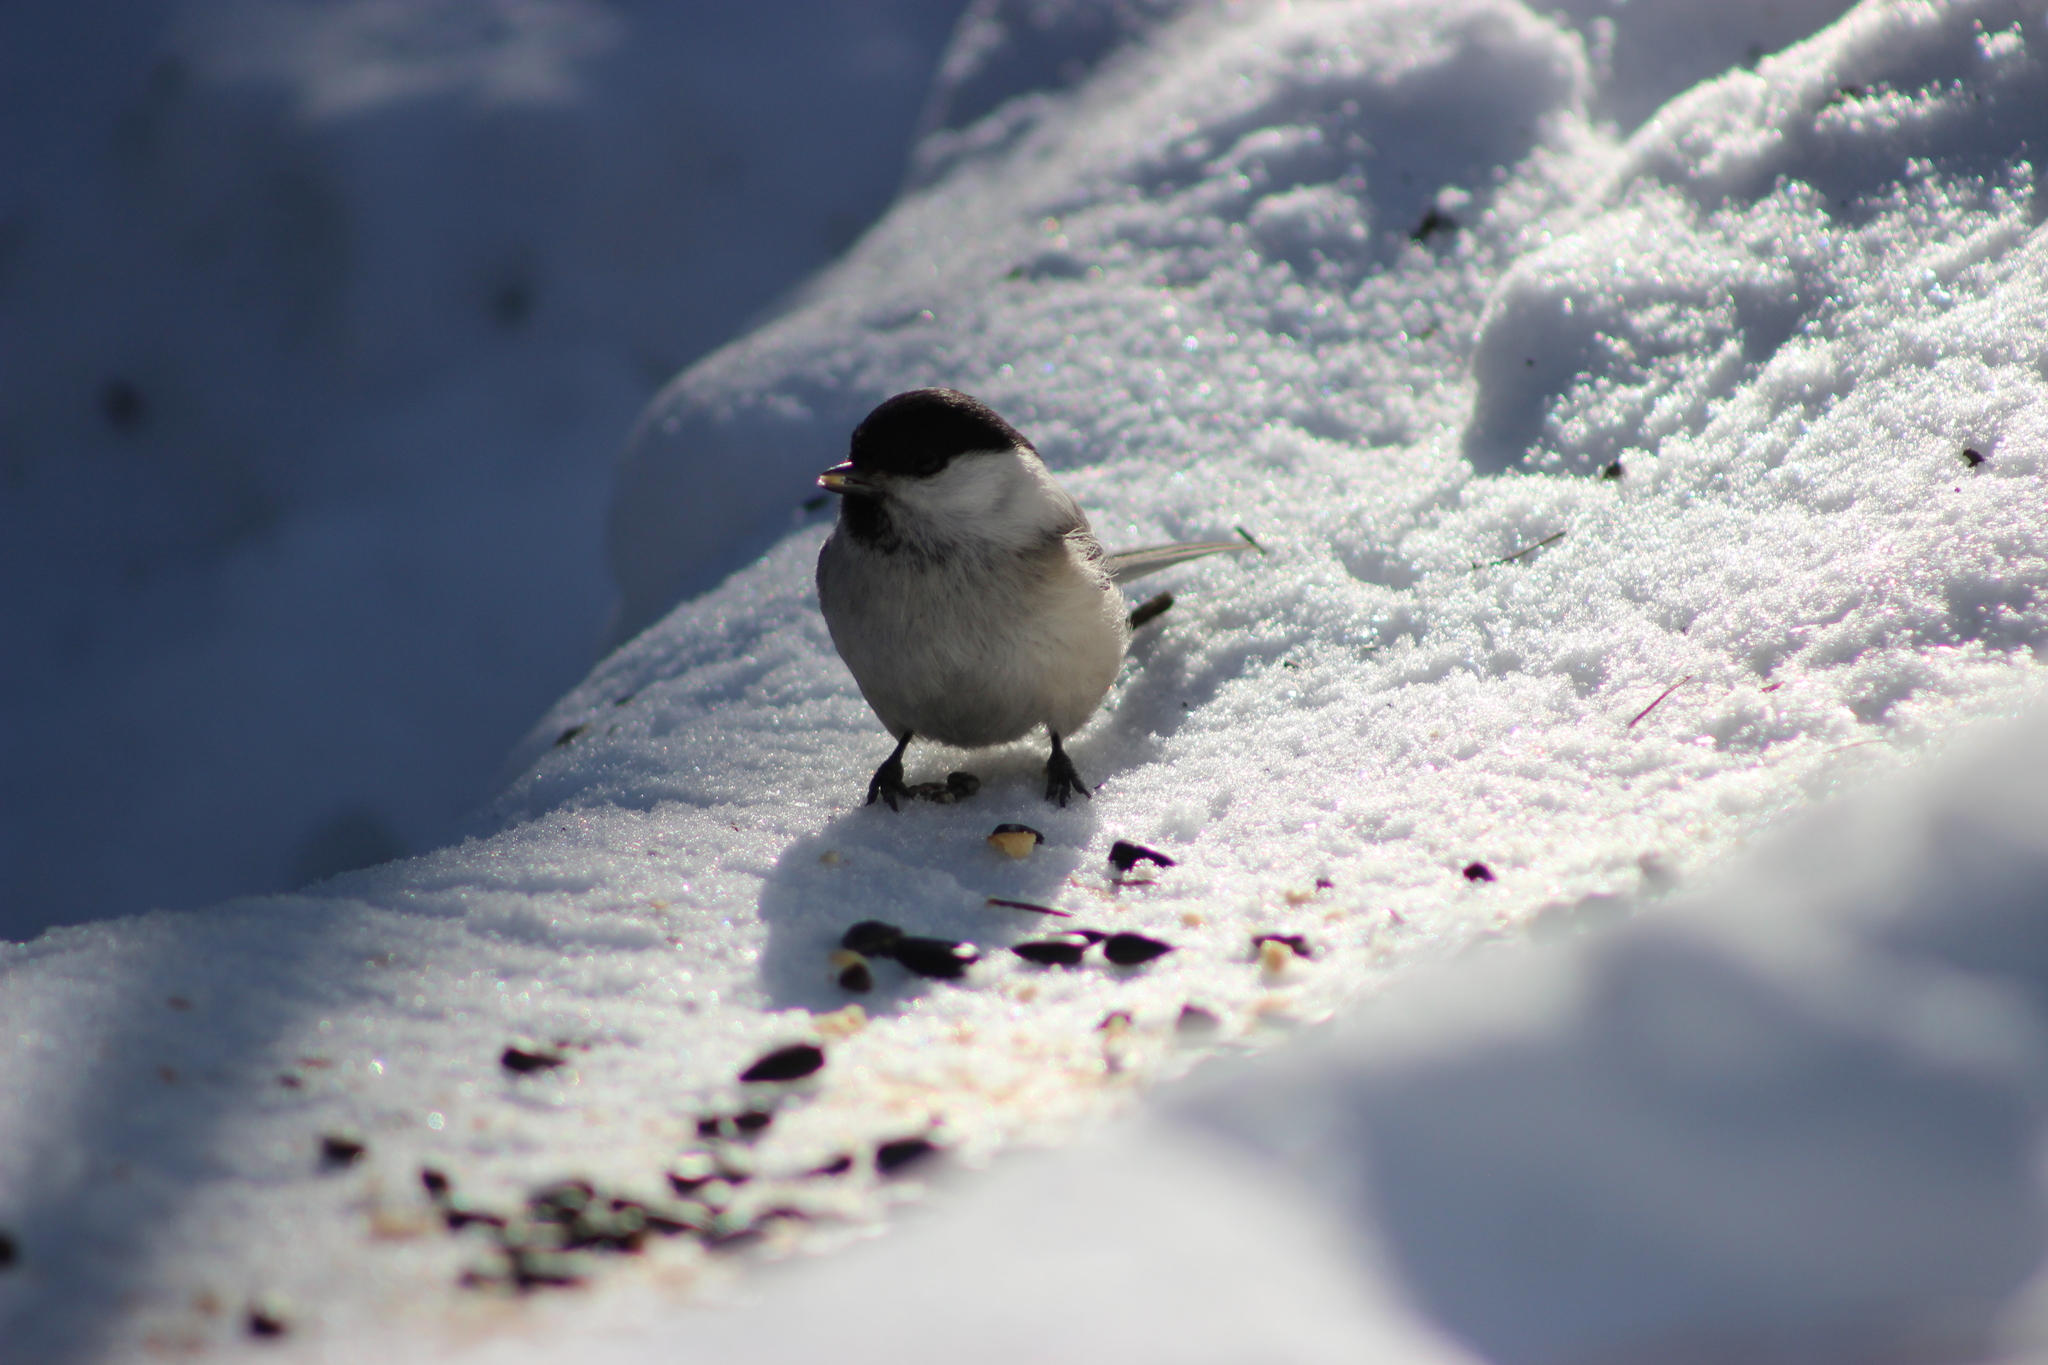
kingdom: Animalia
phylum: Chordata
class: Aves
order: Passeriformes
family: Paridae
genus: Poecile
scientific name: Poecile montanus
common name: Willow tit
